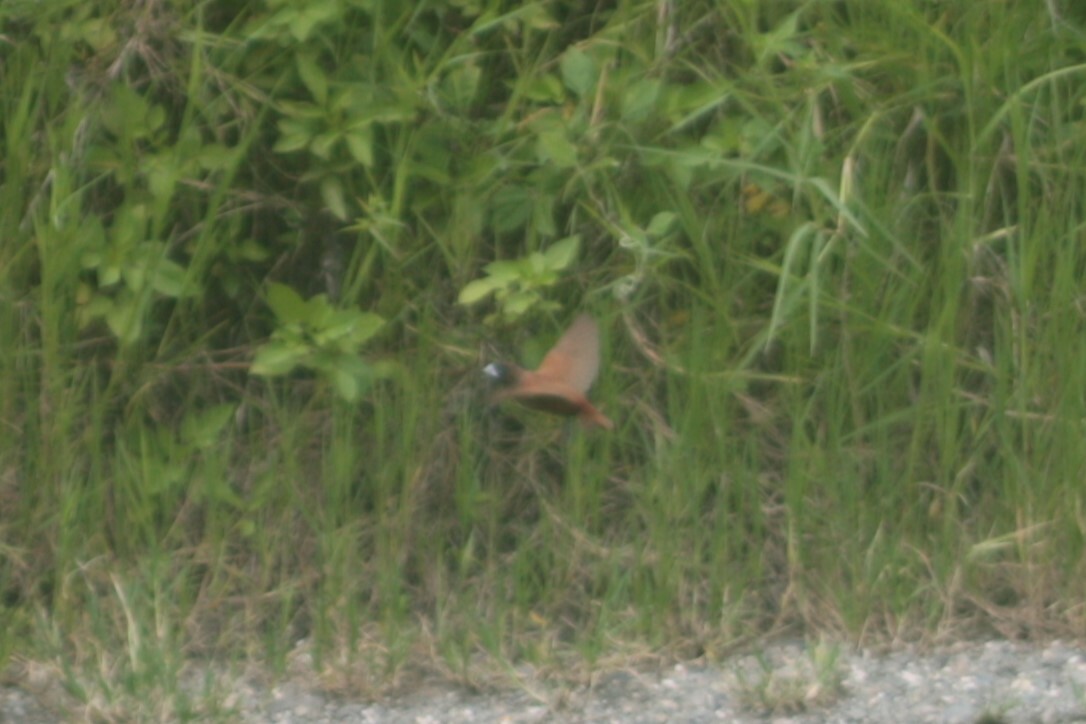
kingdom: Animalia
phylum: Chordata
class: Aves
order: Passeriformes
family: Estrildidae
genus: Lonchura
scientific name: Lonchura atricapilla
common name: Chestnut munia
